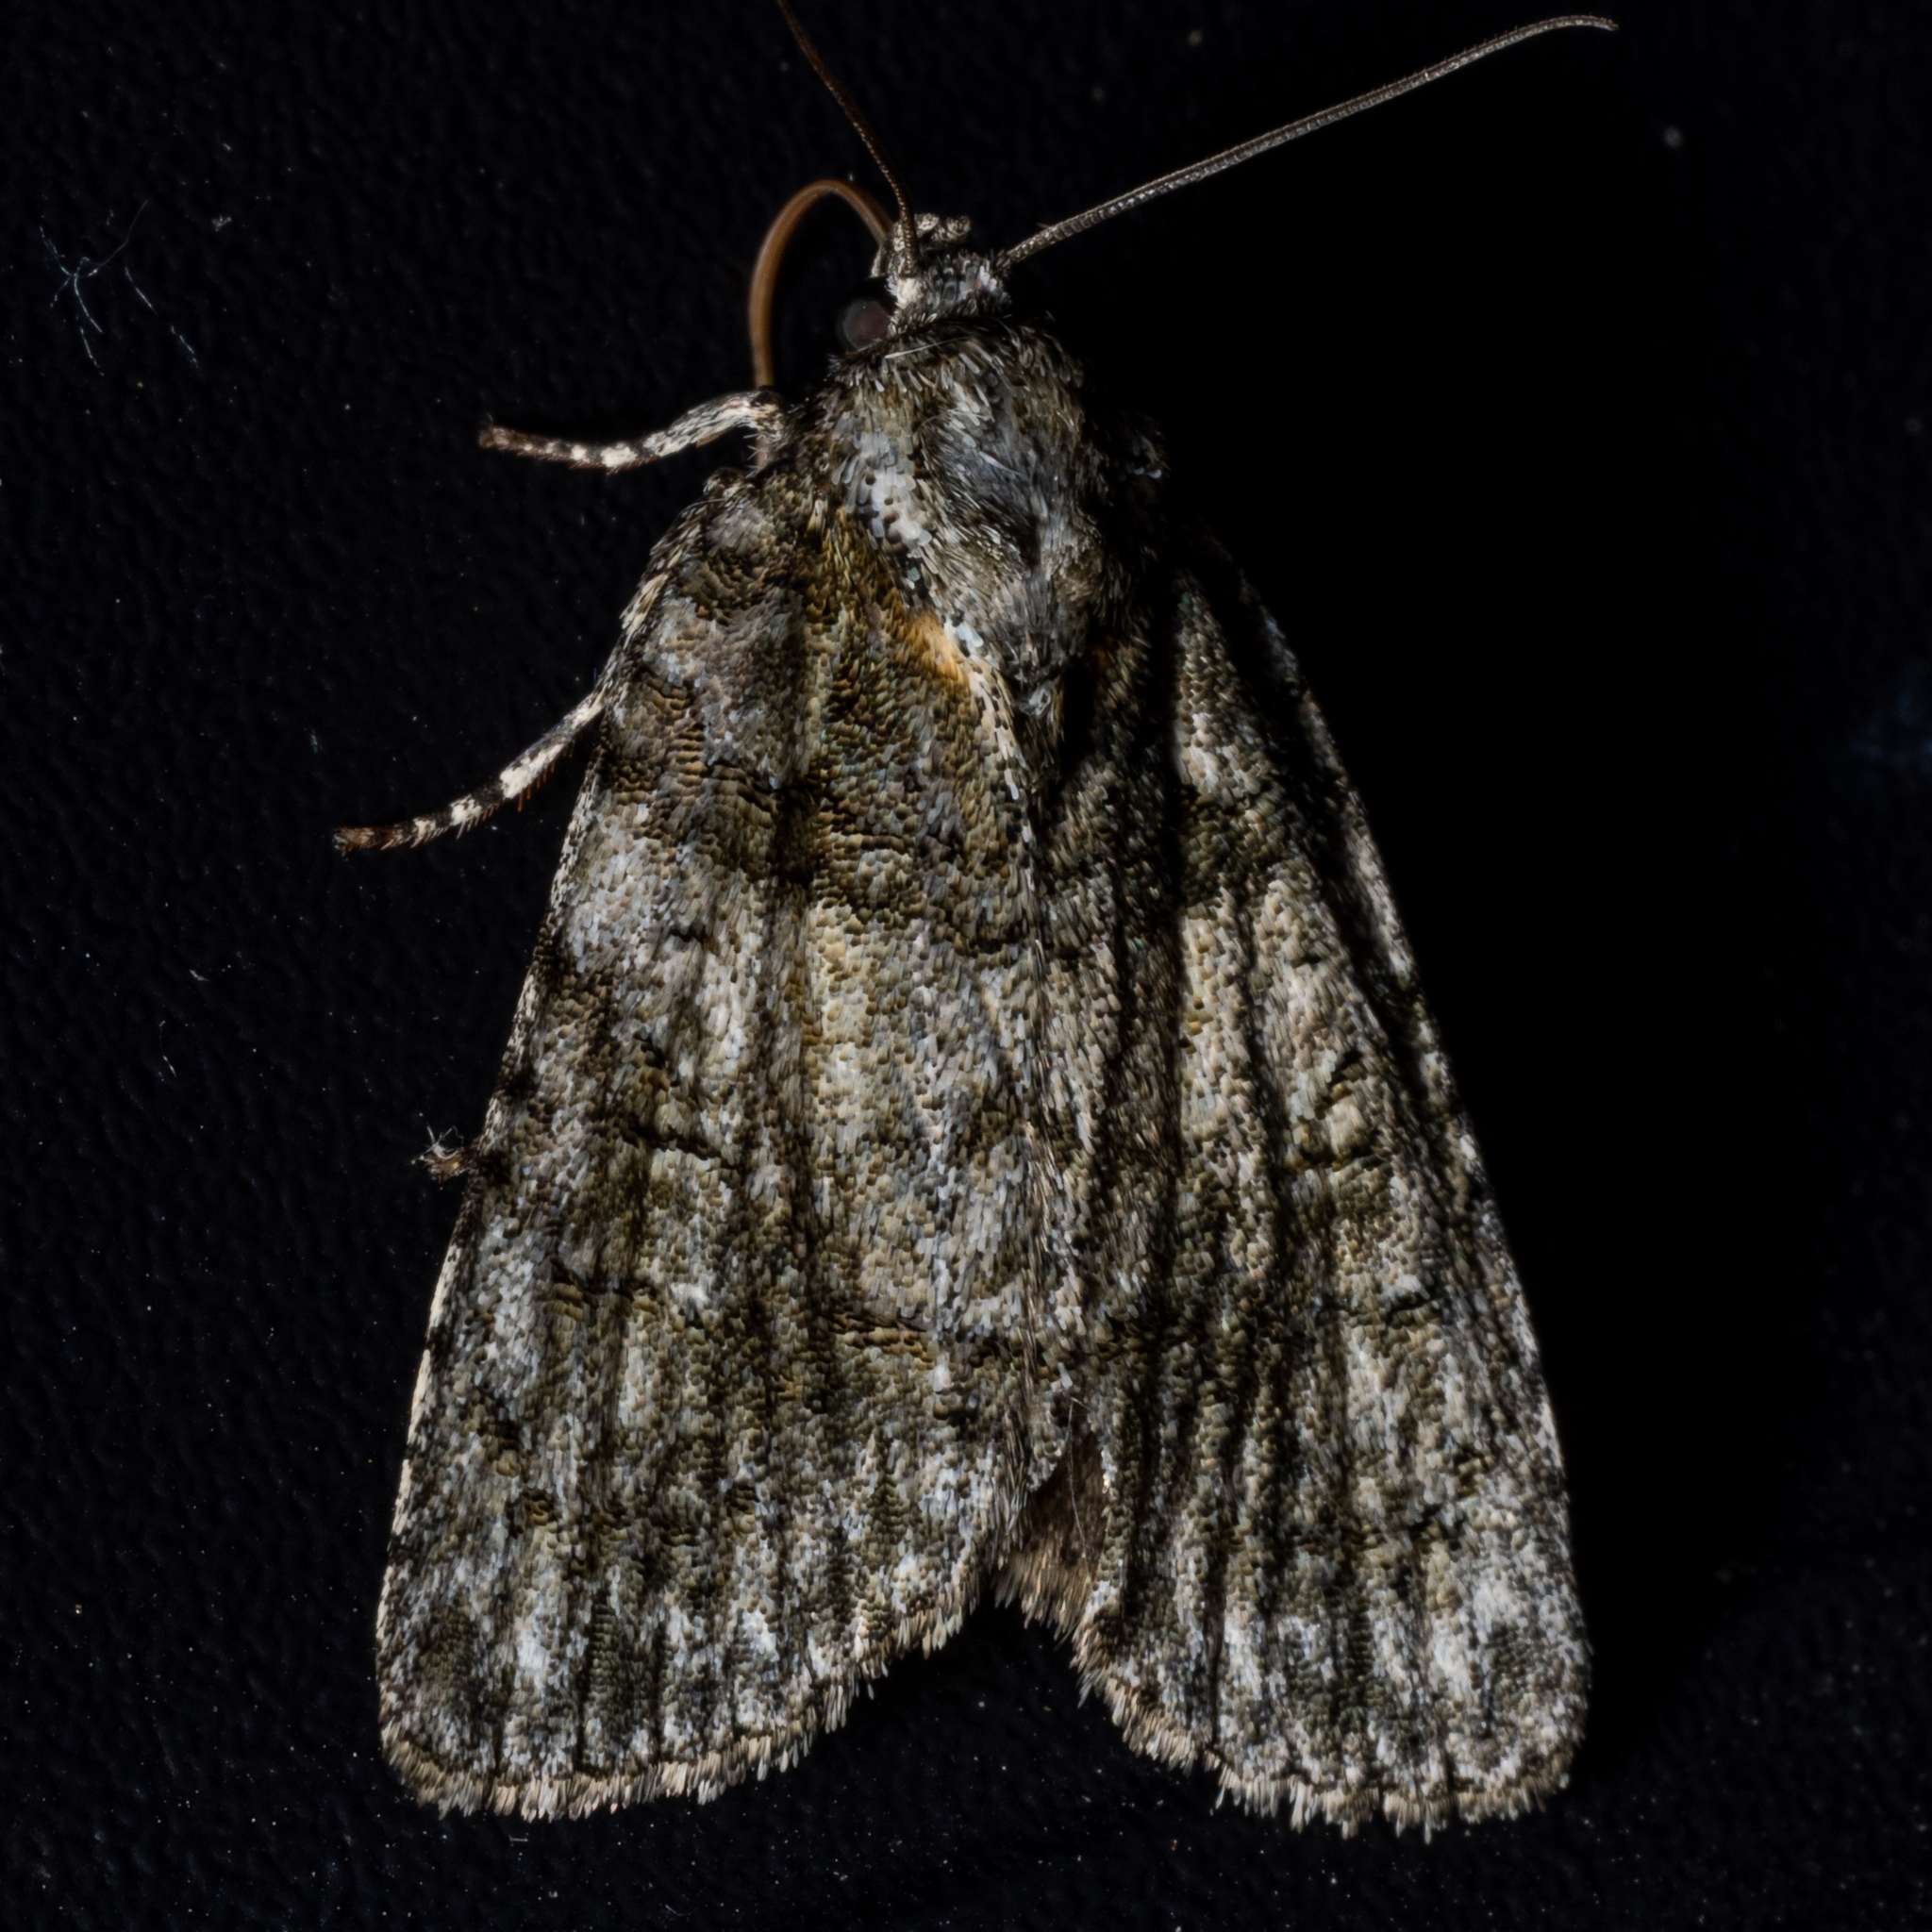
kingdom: Animalia
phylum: Arthropoda
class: Insecta
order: Lepidoptera
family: Noctuidae
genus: Acronicta
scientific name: Acronicta retardata
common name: Maple dagger
